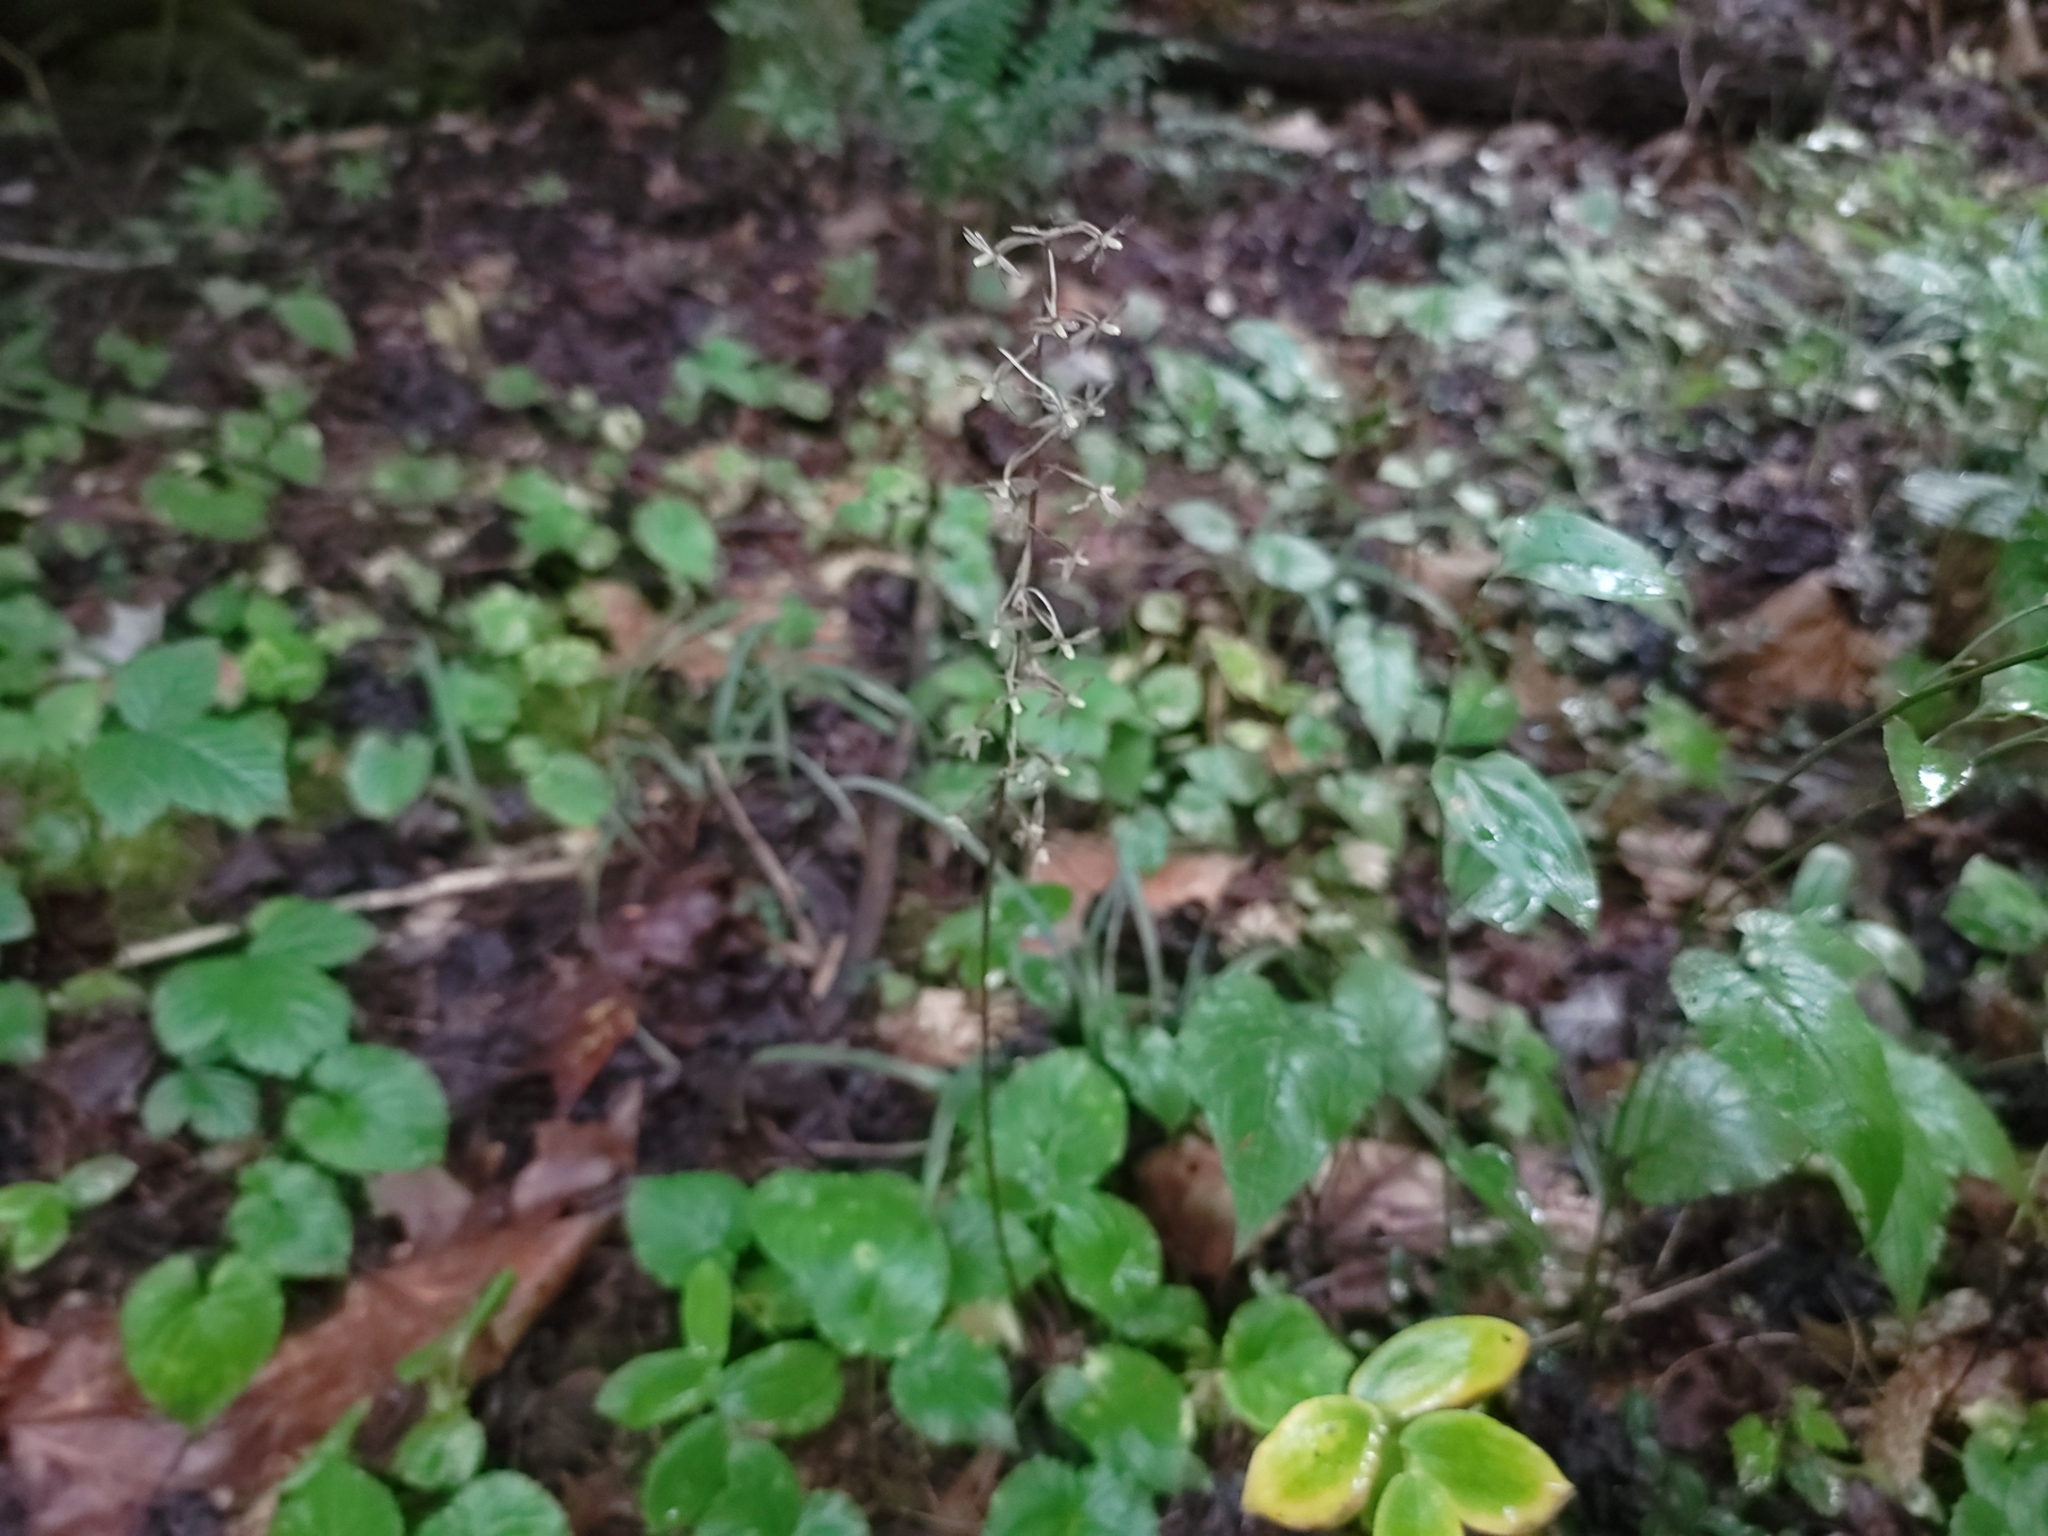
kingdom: Plantae
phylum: Tracheophyta
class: Liliopsida
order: Asparagales
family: Orchidaceae
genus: Tipularia
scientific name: Tipularia discolor
